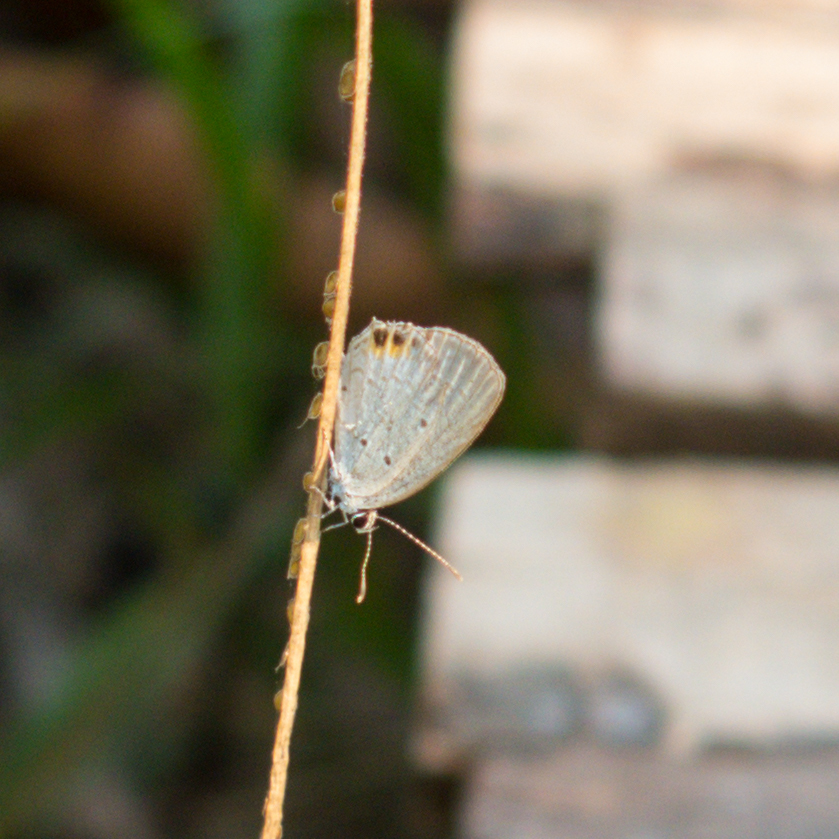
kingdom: Animalia
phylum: Arthropoda
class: Insecta
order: Lepidoptera
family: Lycaenidae
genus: Everes
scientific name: Everes lacturnus
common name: Orange-tipped pea-blue
